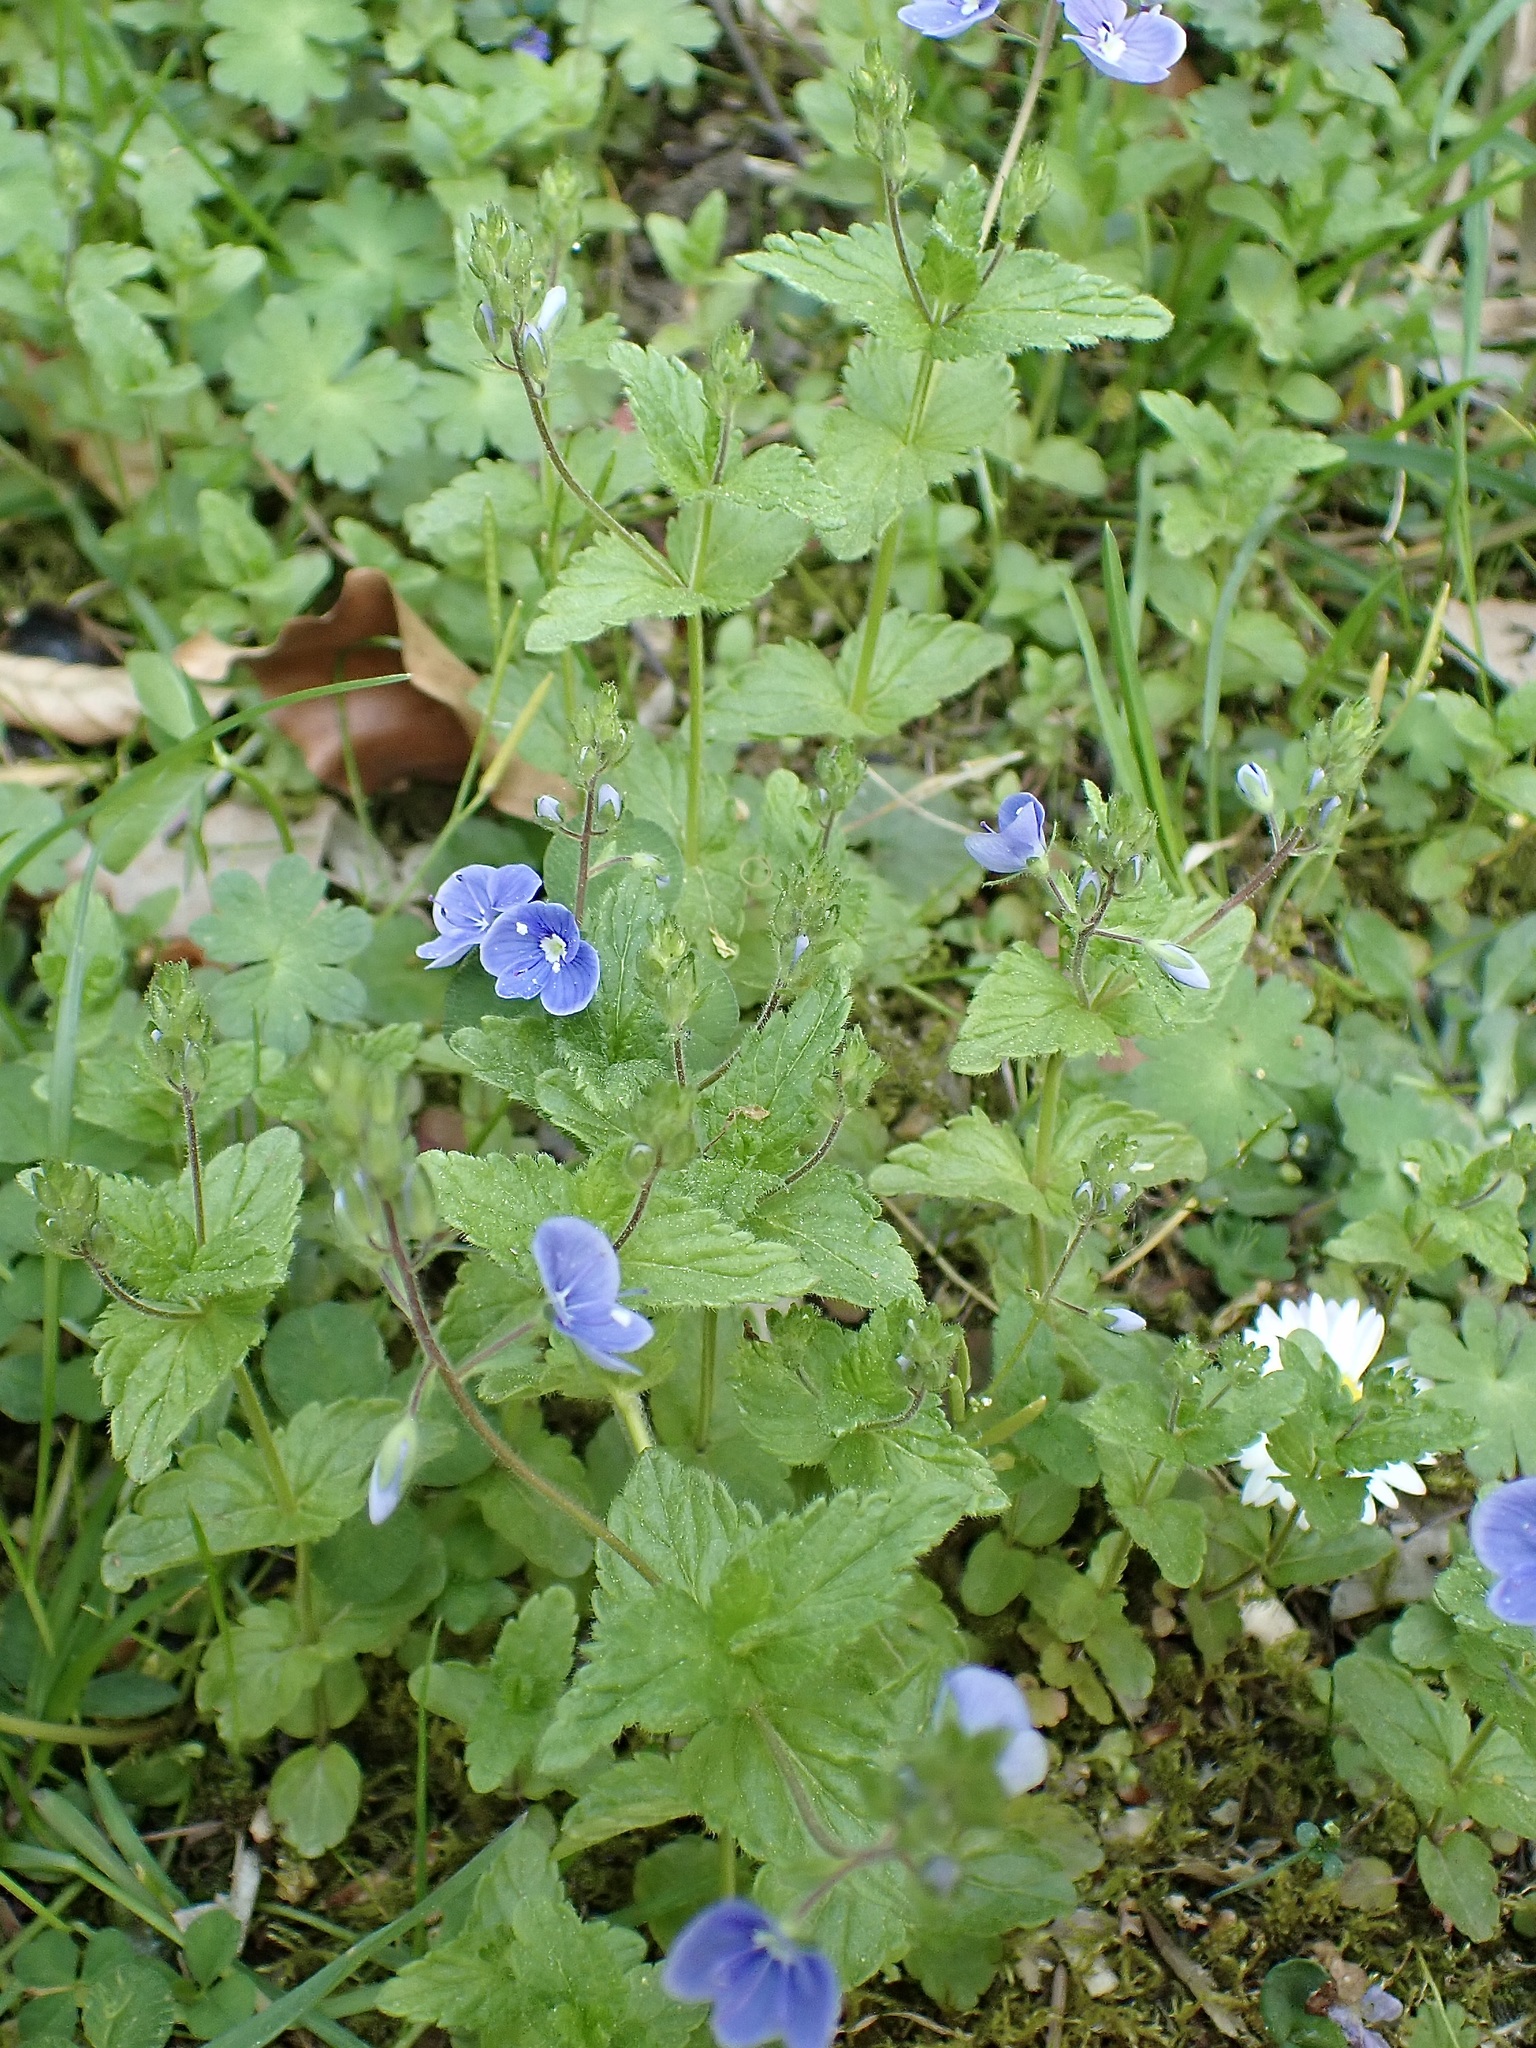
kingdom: Plantae
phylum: Tracheophyta
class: Magnoliopsida
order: Lamiales
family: Plantaginaceae
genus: Veronica
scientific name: Veronica chamaedrys
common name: Germander speedwell
